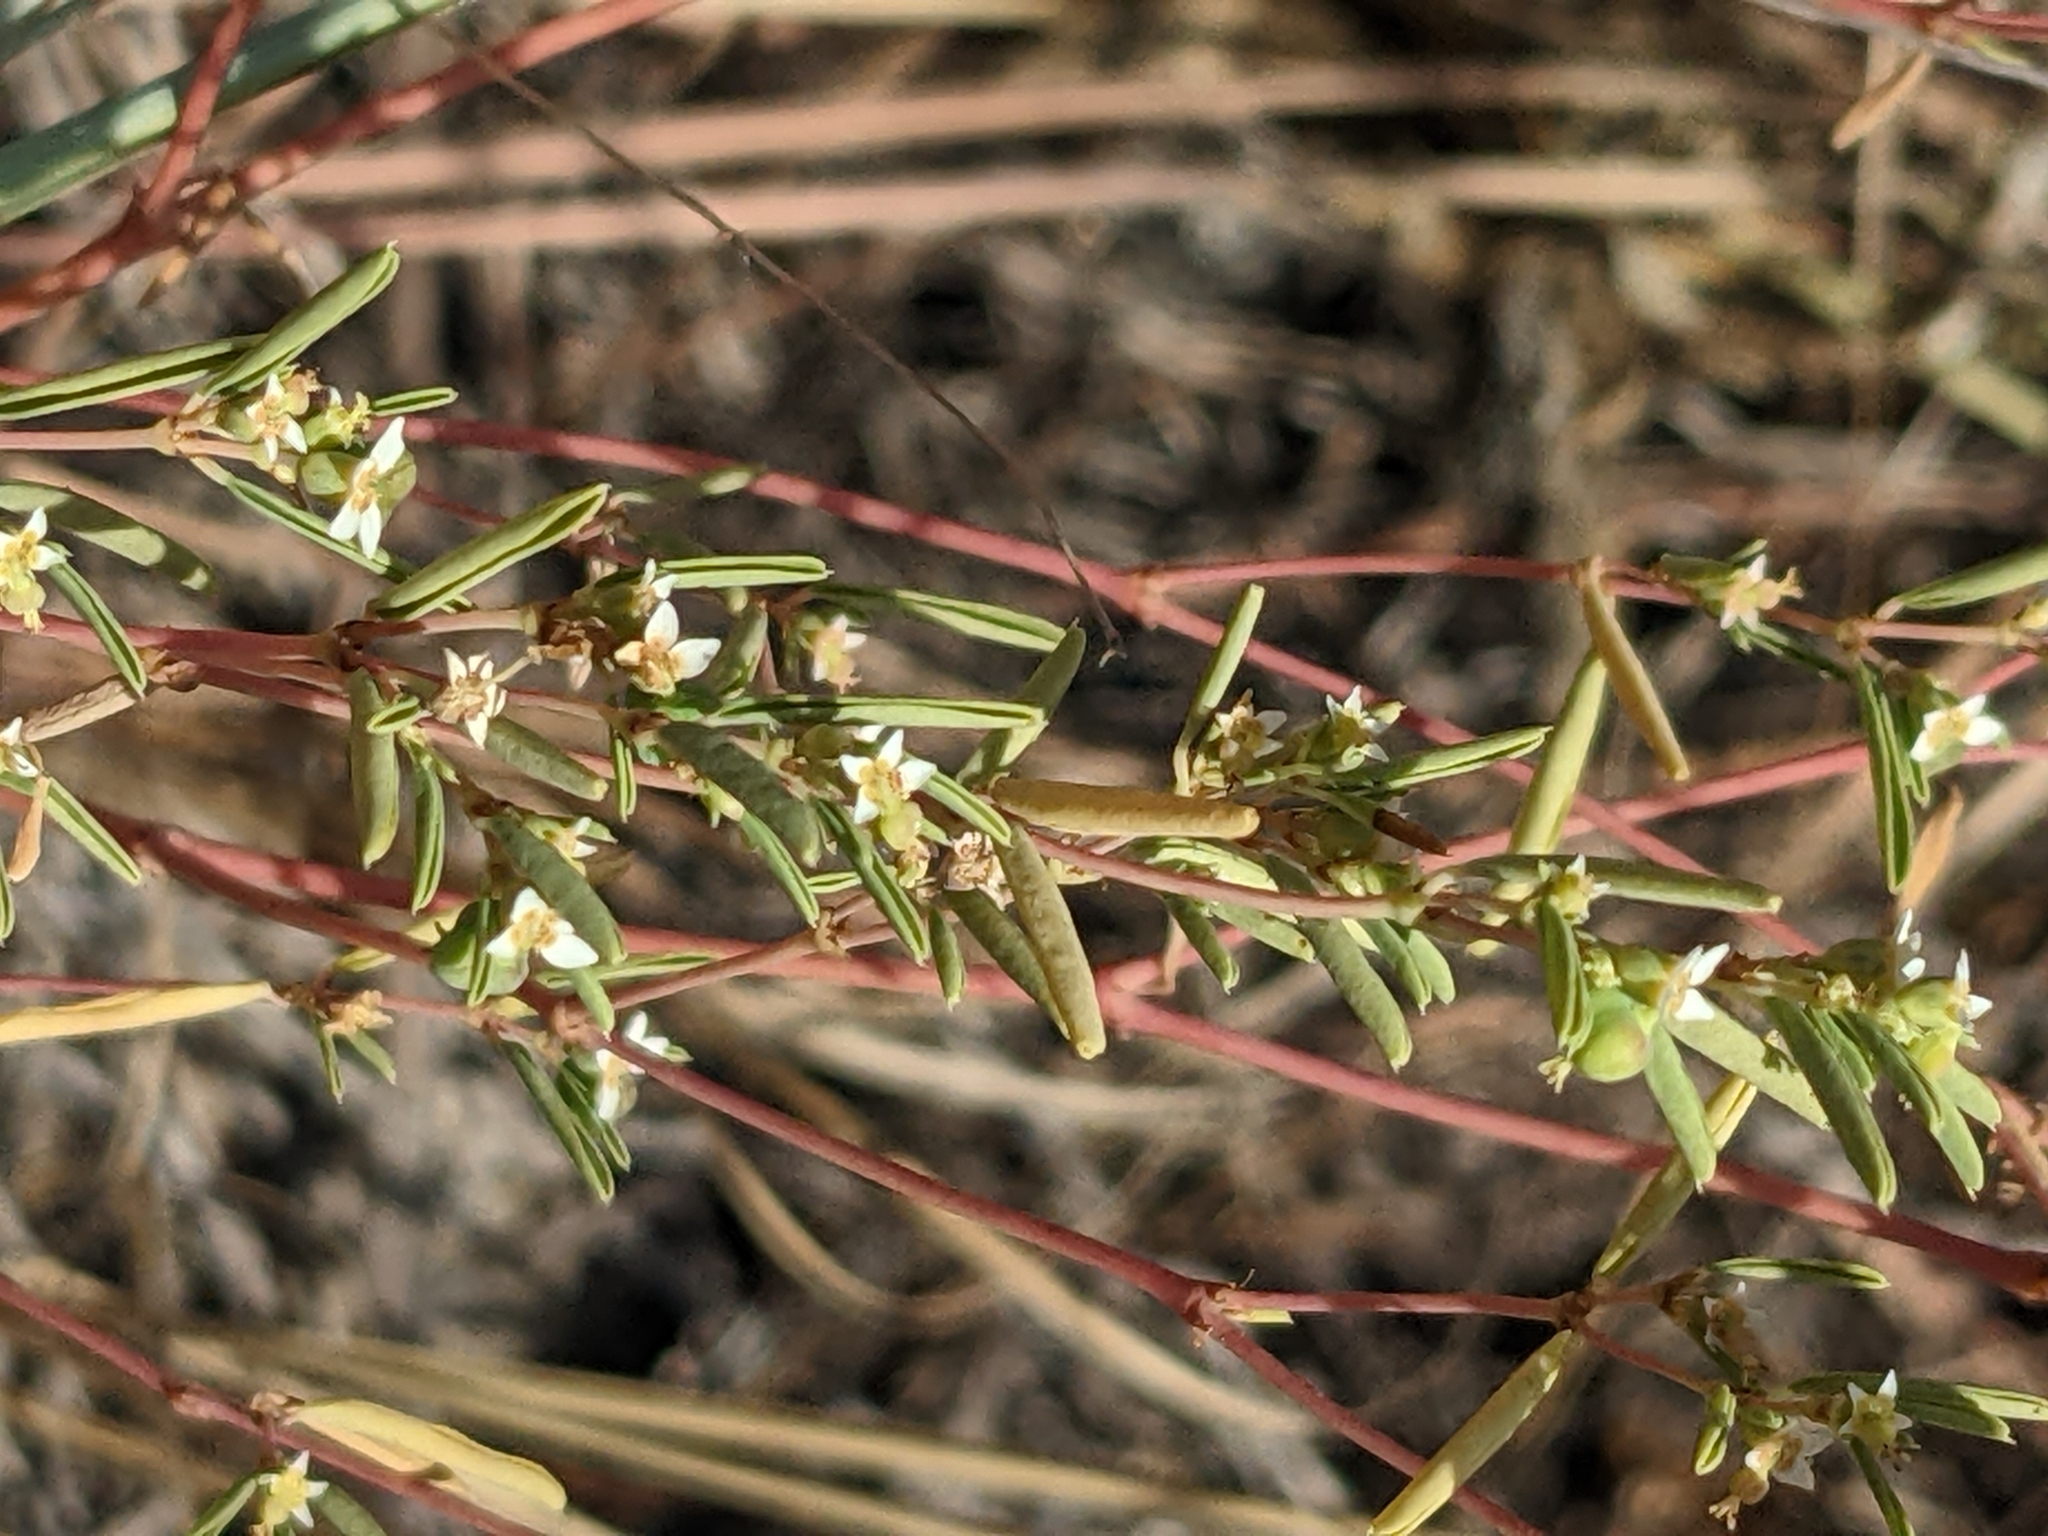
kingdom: Plantae
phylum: Tracheophyta
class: Magnoliopsida
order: Malpighiales
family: Euphorbiaceae
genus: Euphorbia
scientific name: Euphorbia missurica
